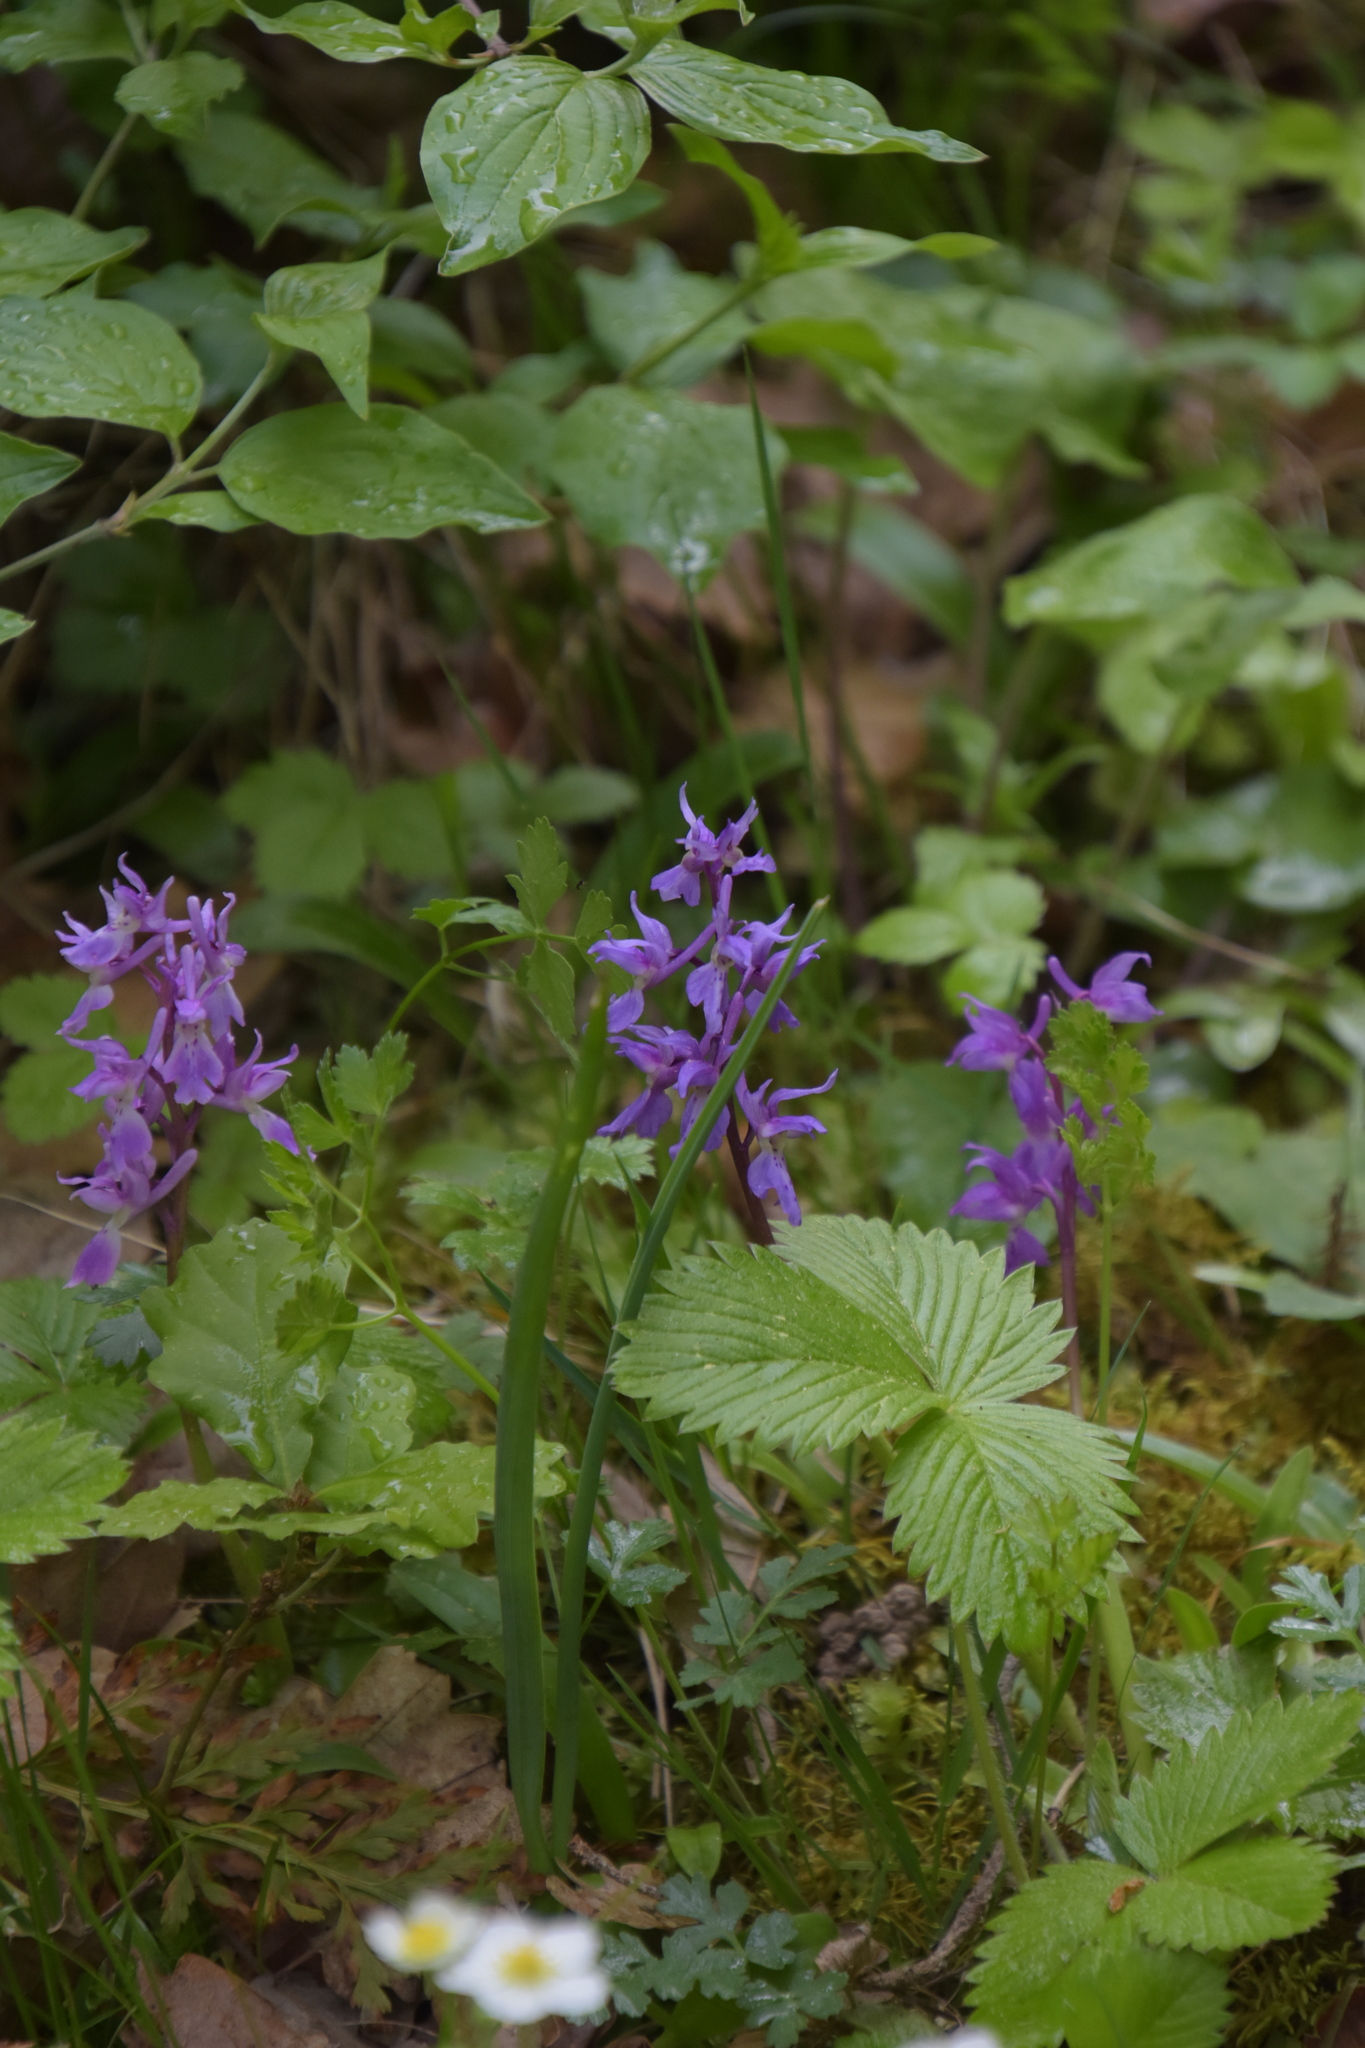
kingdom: Plantae
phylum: Tracheophyta
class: Liliopsida
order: Asparagales
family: Orchidaceae
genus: Orchis
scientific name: Orchis mascula
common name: Early-purple orchid
